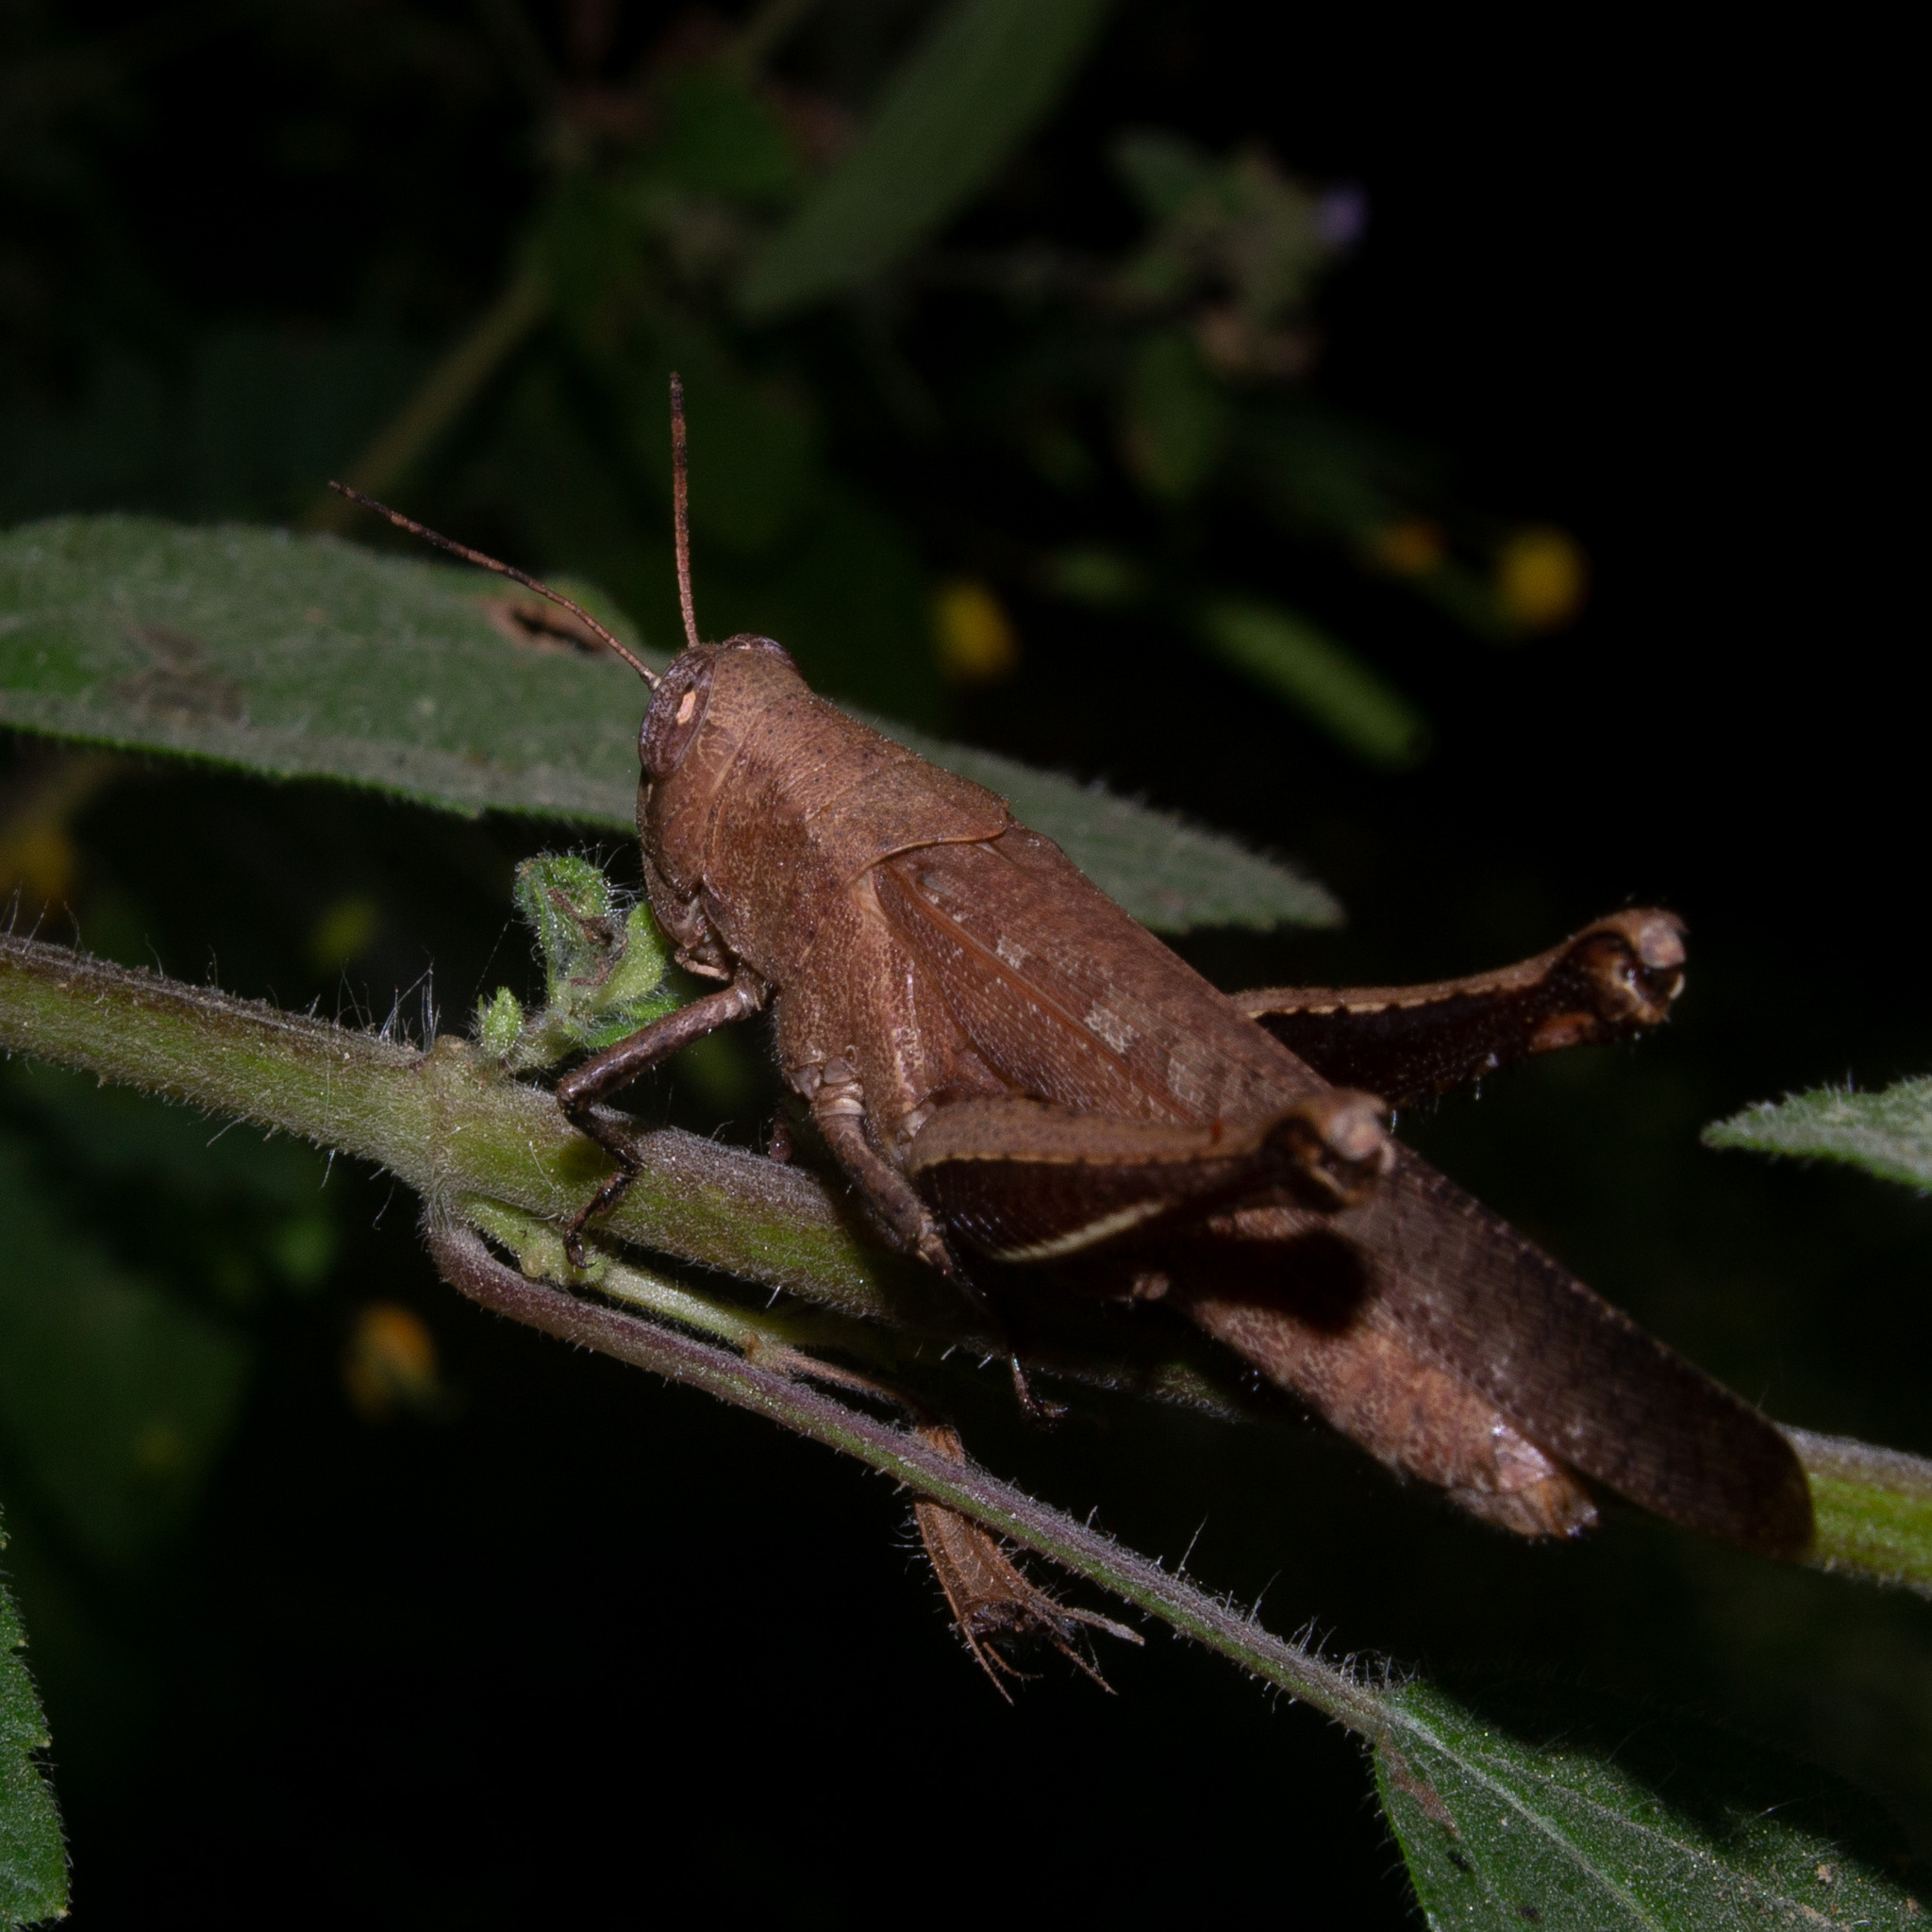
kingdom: Animalia
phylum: Arthropoda
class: Insecta
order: Orthoptera
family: Acrididae
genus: Abracris
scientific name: Abracris flavolineata
